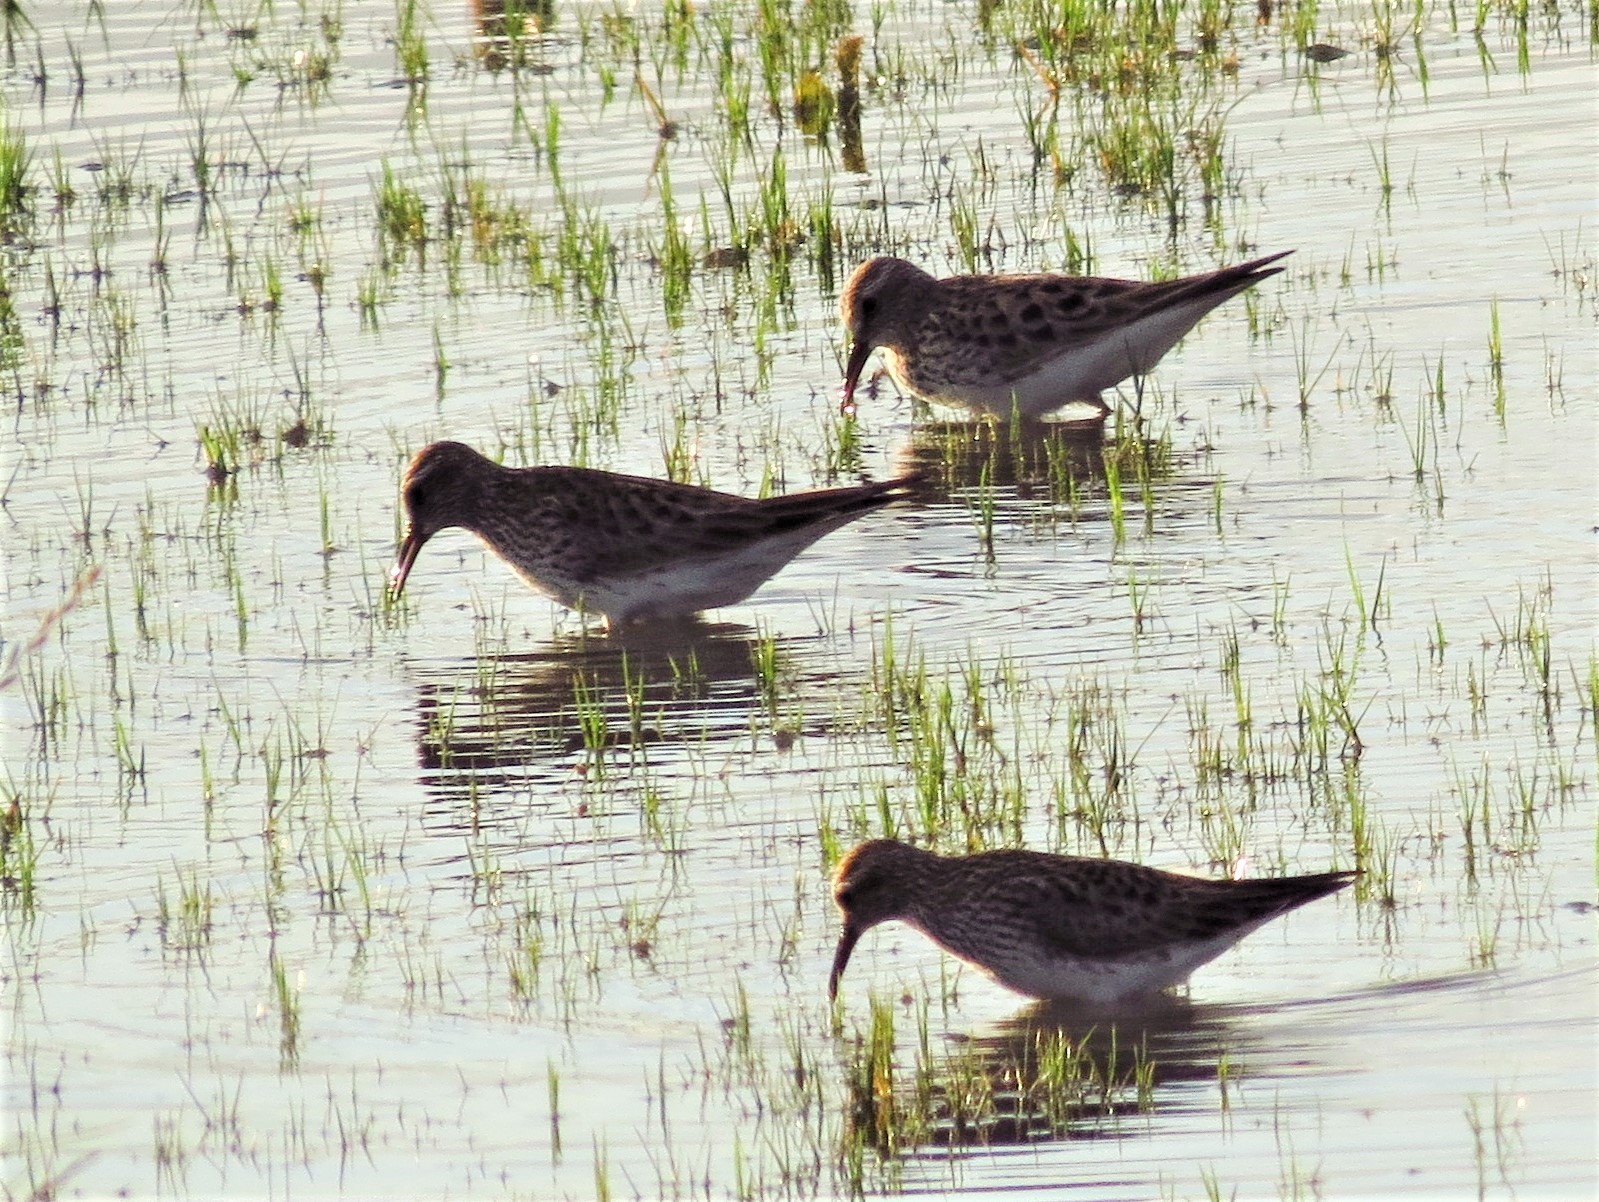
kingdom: Animalia
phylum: Chordata
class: Aves
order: Charadriiformes
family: Scolopacidae
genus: Calidris
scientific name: Calidris melanotos
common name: Pectoral sandpiper
